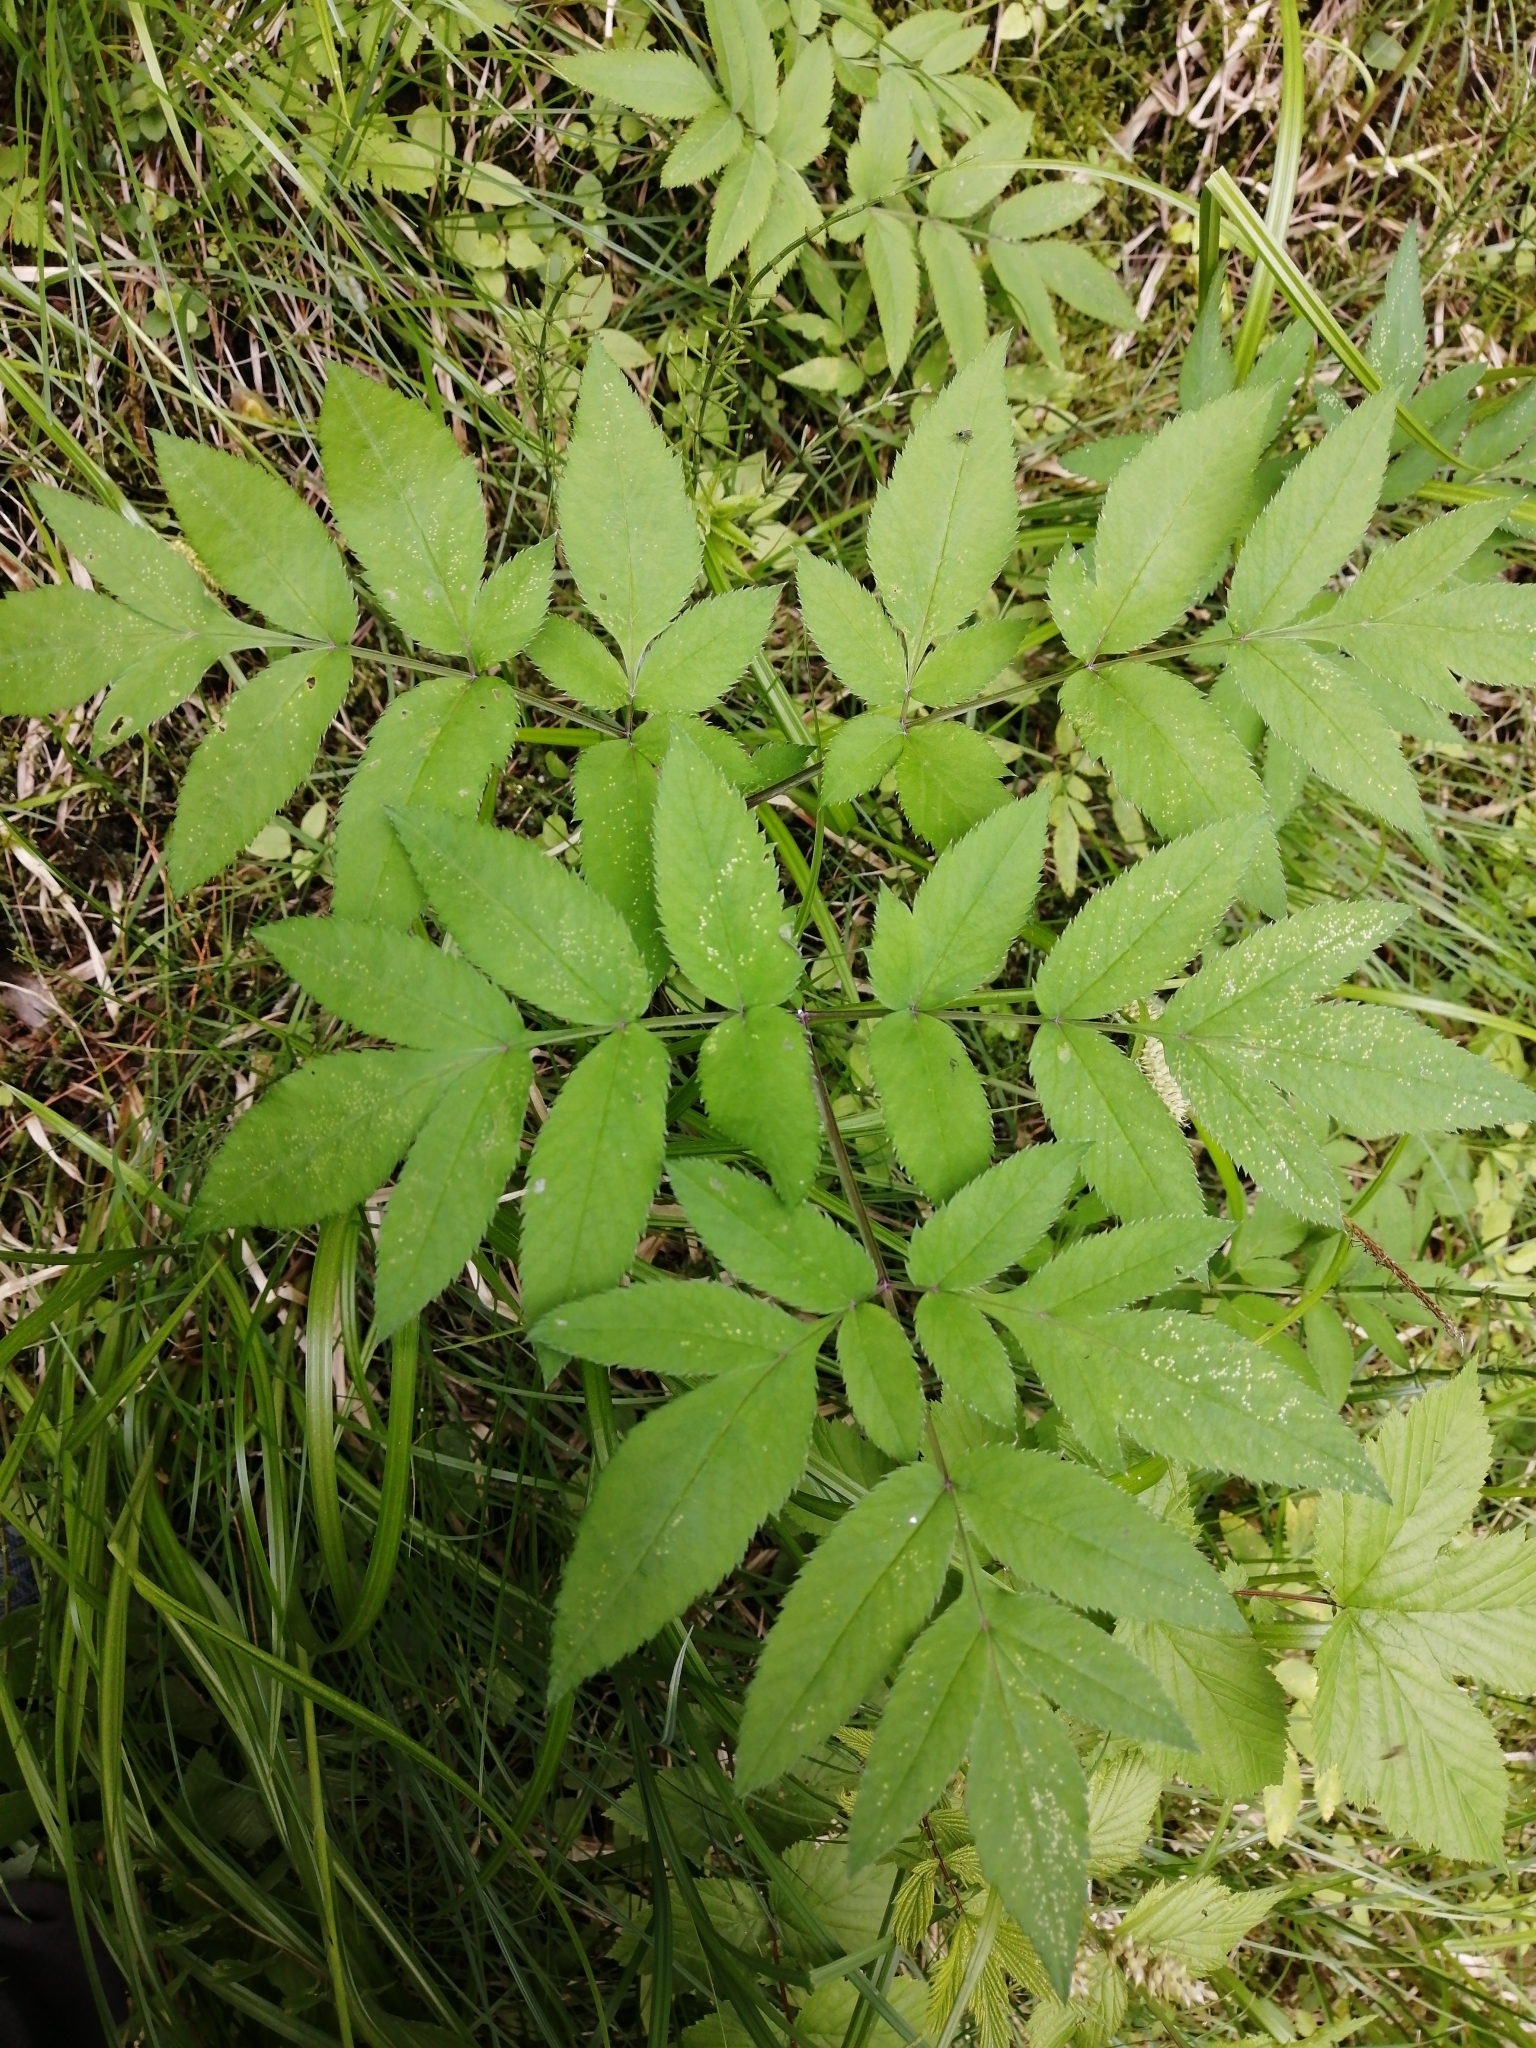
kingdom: Plantae
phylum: Tracheophyta
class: Magnoliopsida
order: Apiales
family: Apiaceae
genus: Angelica
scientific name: Angelica sylvestris
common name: Wild angelica
